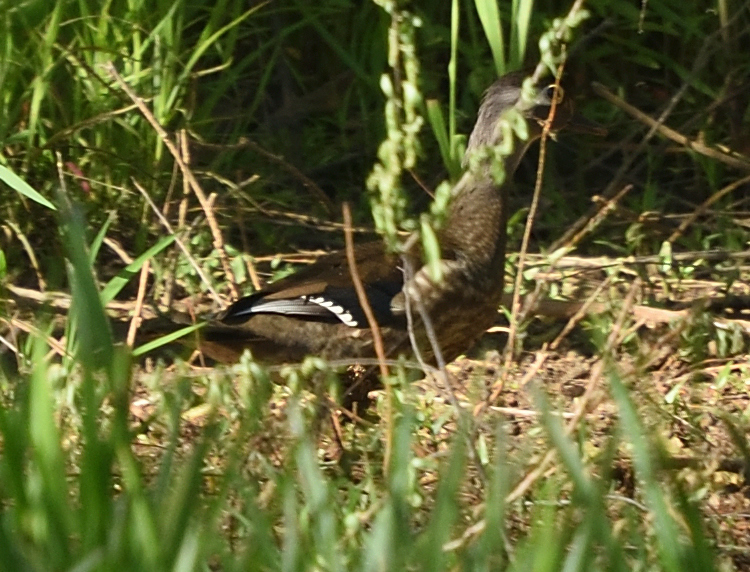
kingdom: Animalia
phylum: Chordata
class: Aves
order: Anseriformes
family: Anatidae
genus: Aix
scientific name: Aix sponsa
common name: Wood duck
